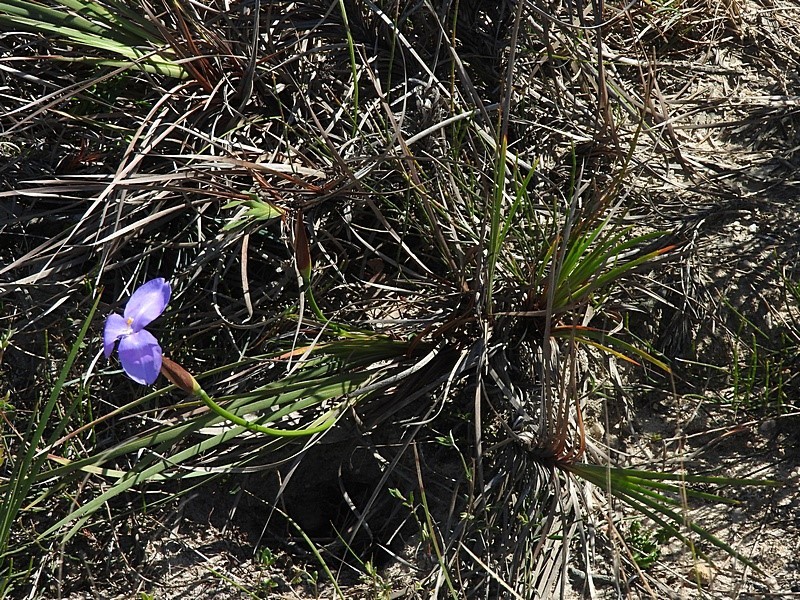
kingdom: Plantae
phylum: Tracheophyta
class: Liliopsida
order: Asparagales
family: Iridaceae
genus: Patersonia
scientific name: Patersonia glabrata
